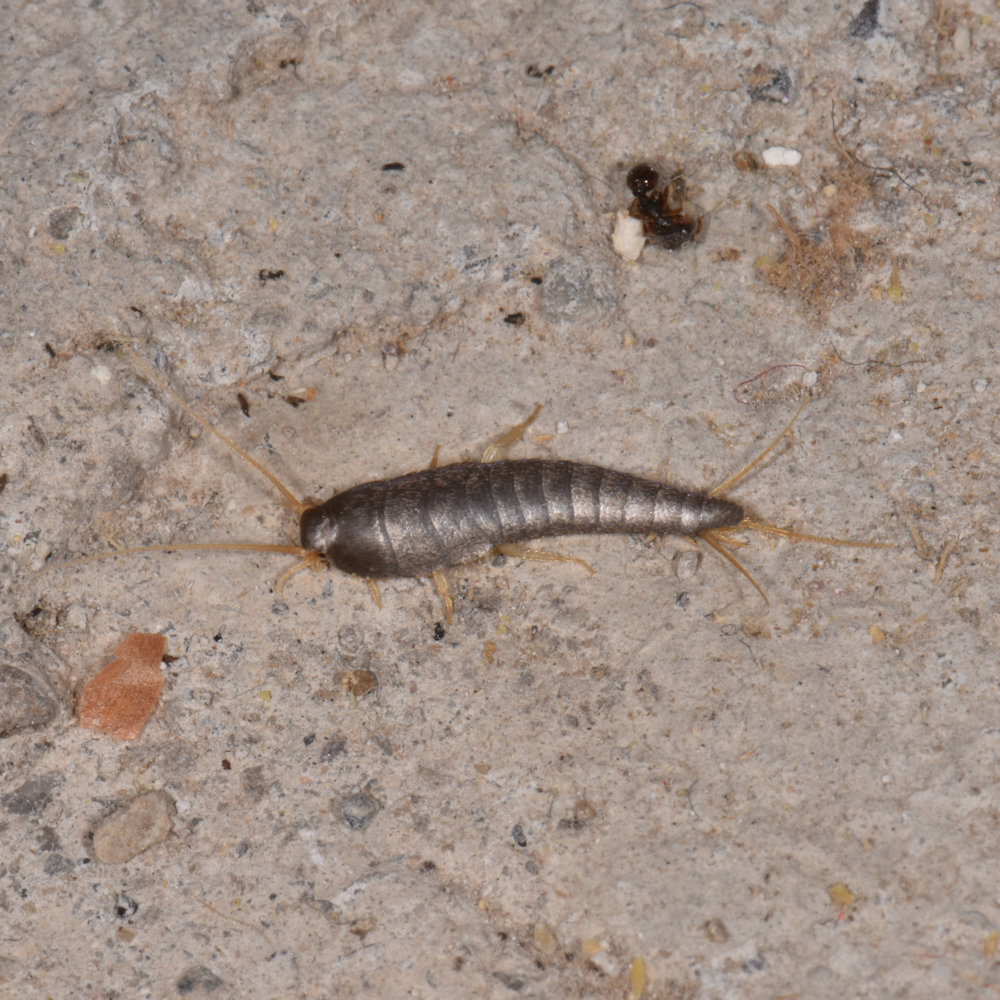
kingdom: Animalia
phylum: Arthropoda
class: Insecta
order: Zygentoma
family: Lepismatidae
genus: Lepisma
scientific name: Lepisma saccharinum
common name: Silverfish
